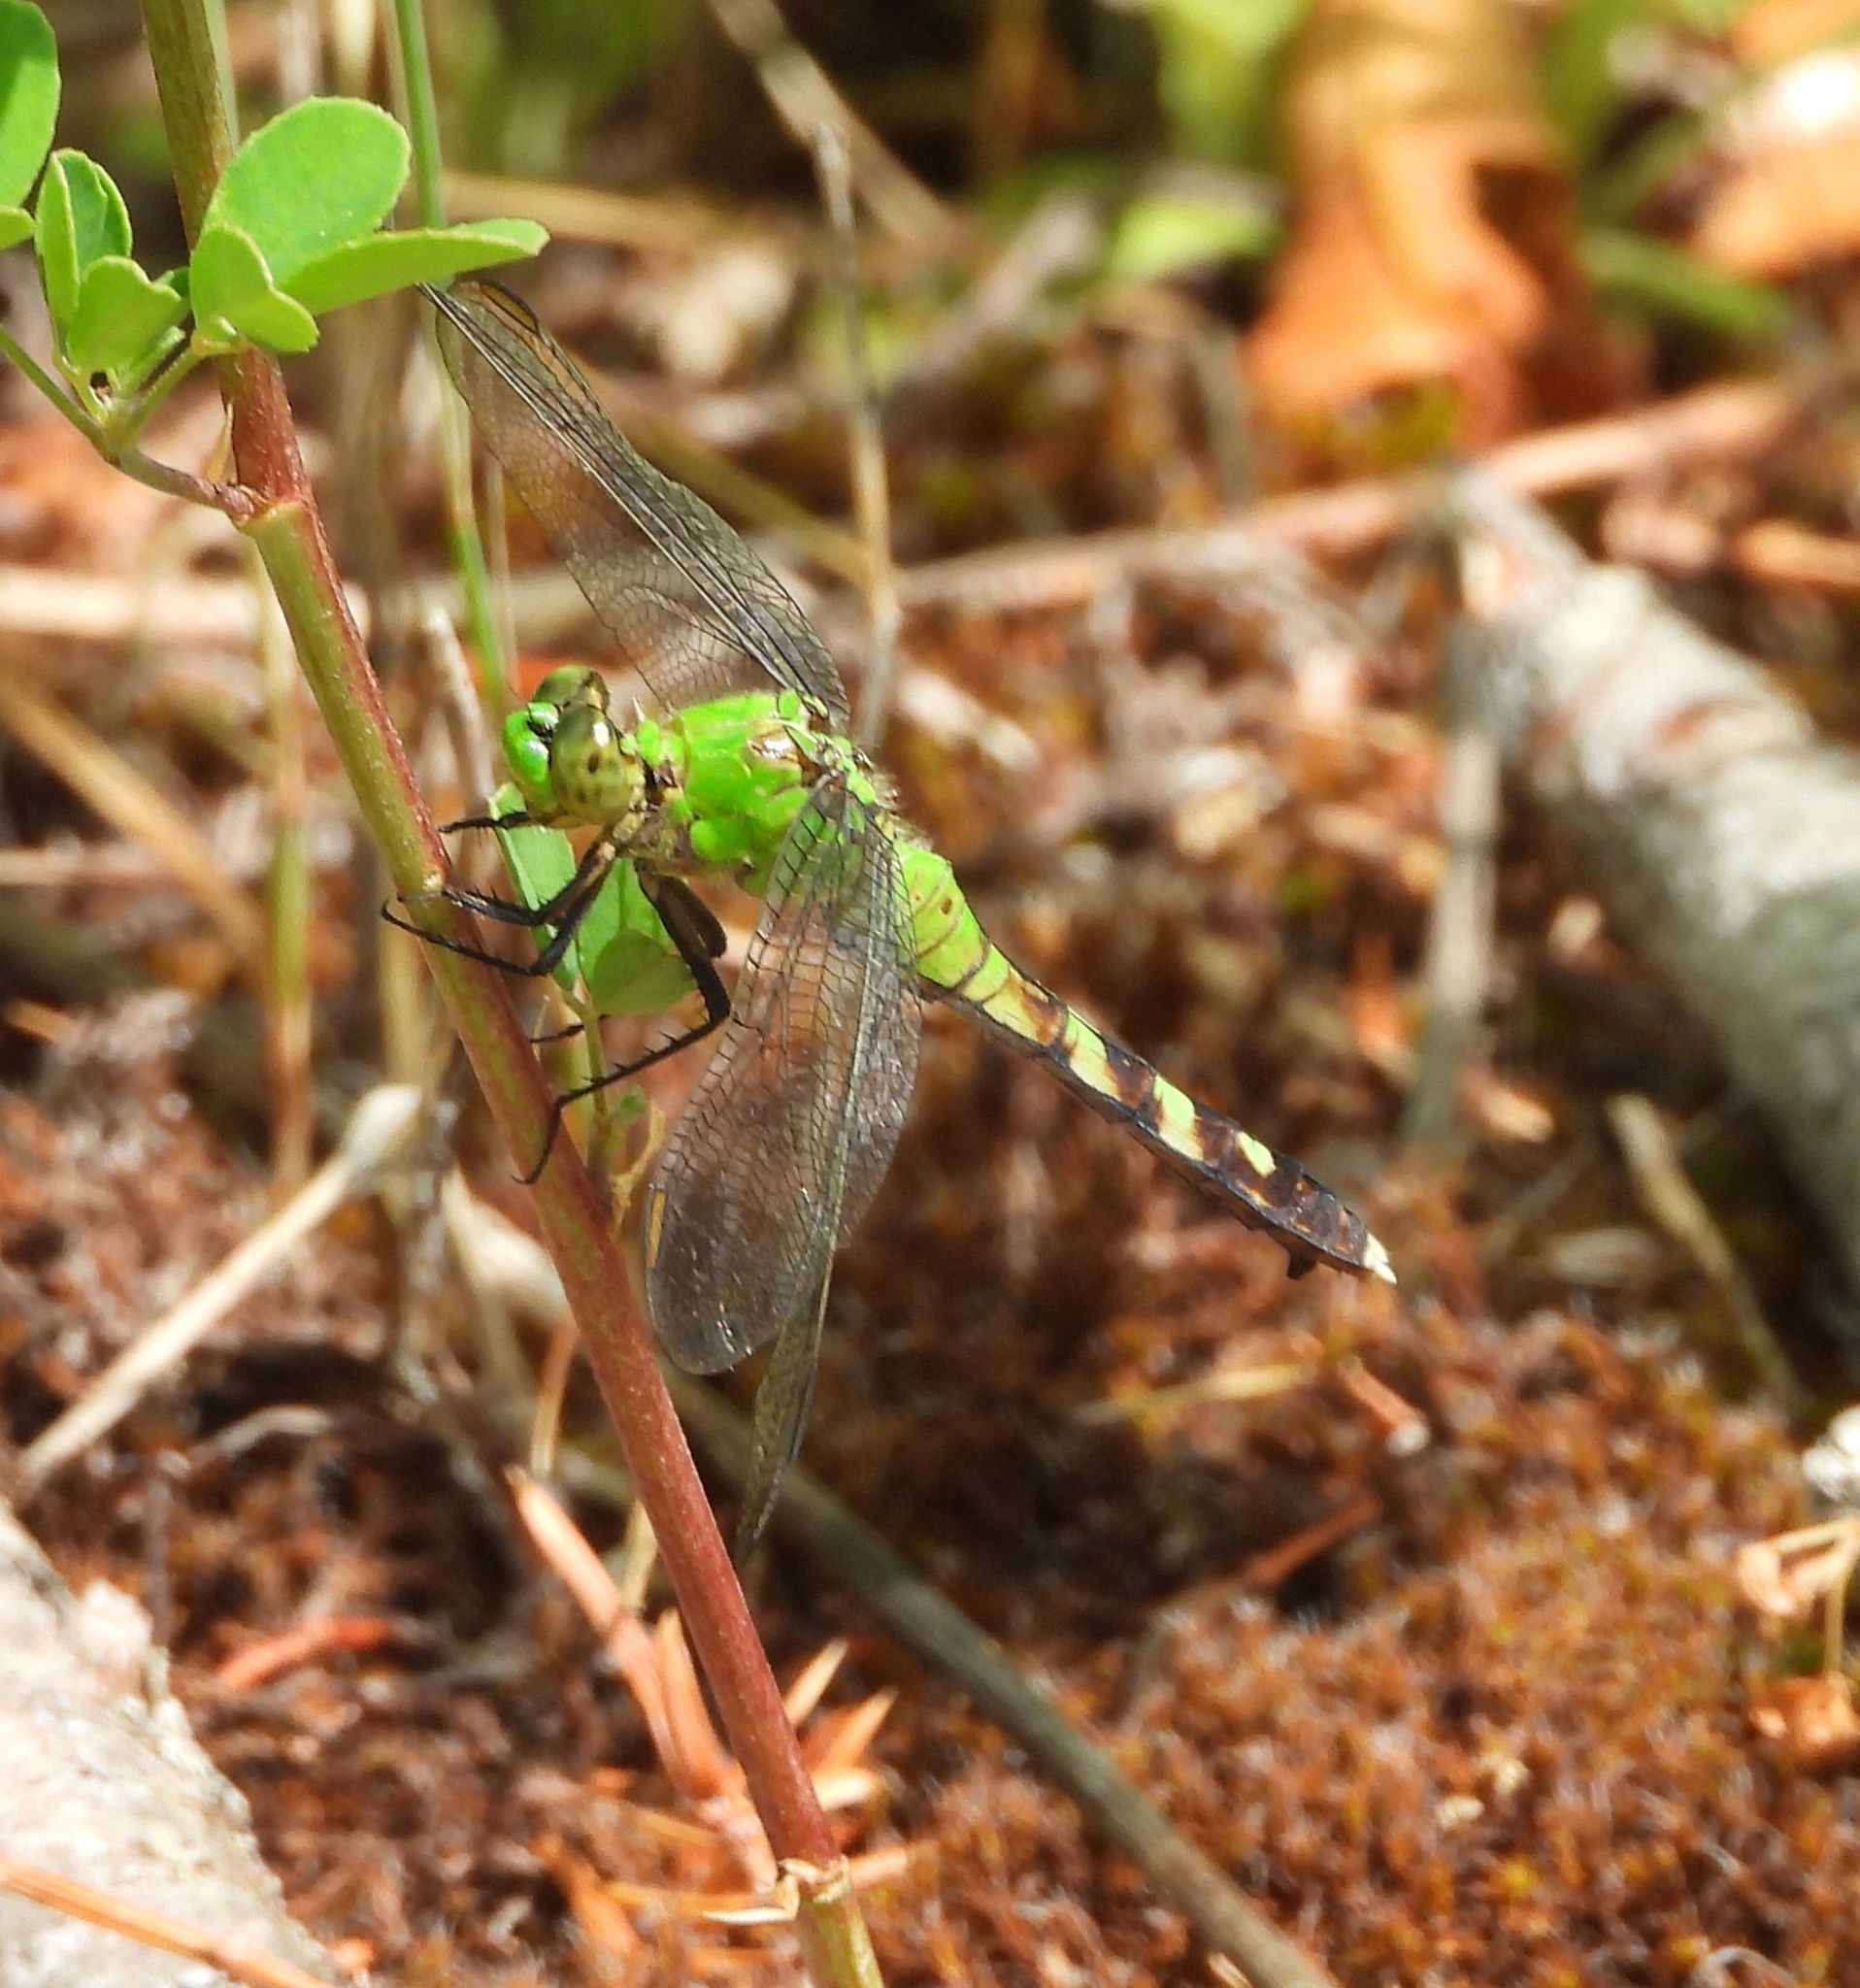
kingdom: Animalia
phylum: Arthropoda
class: Insecta
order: Odonata
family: Libellulidae
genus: Erythemis
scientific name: Erythemis simplicicollis
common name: Eastern pondhawk
